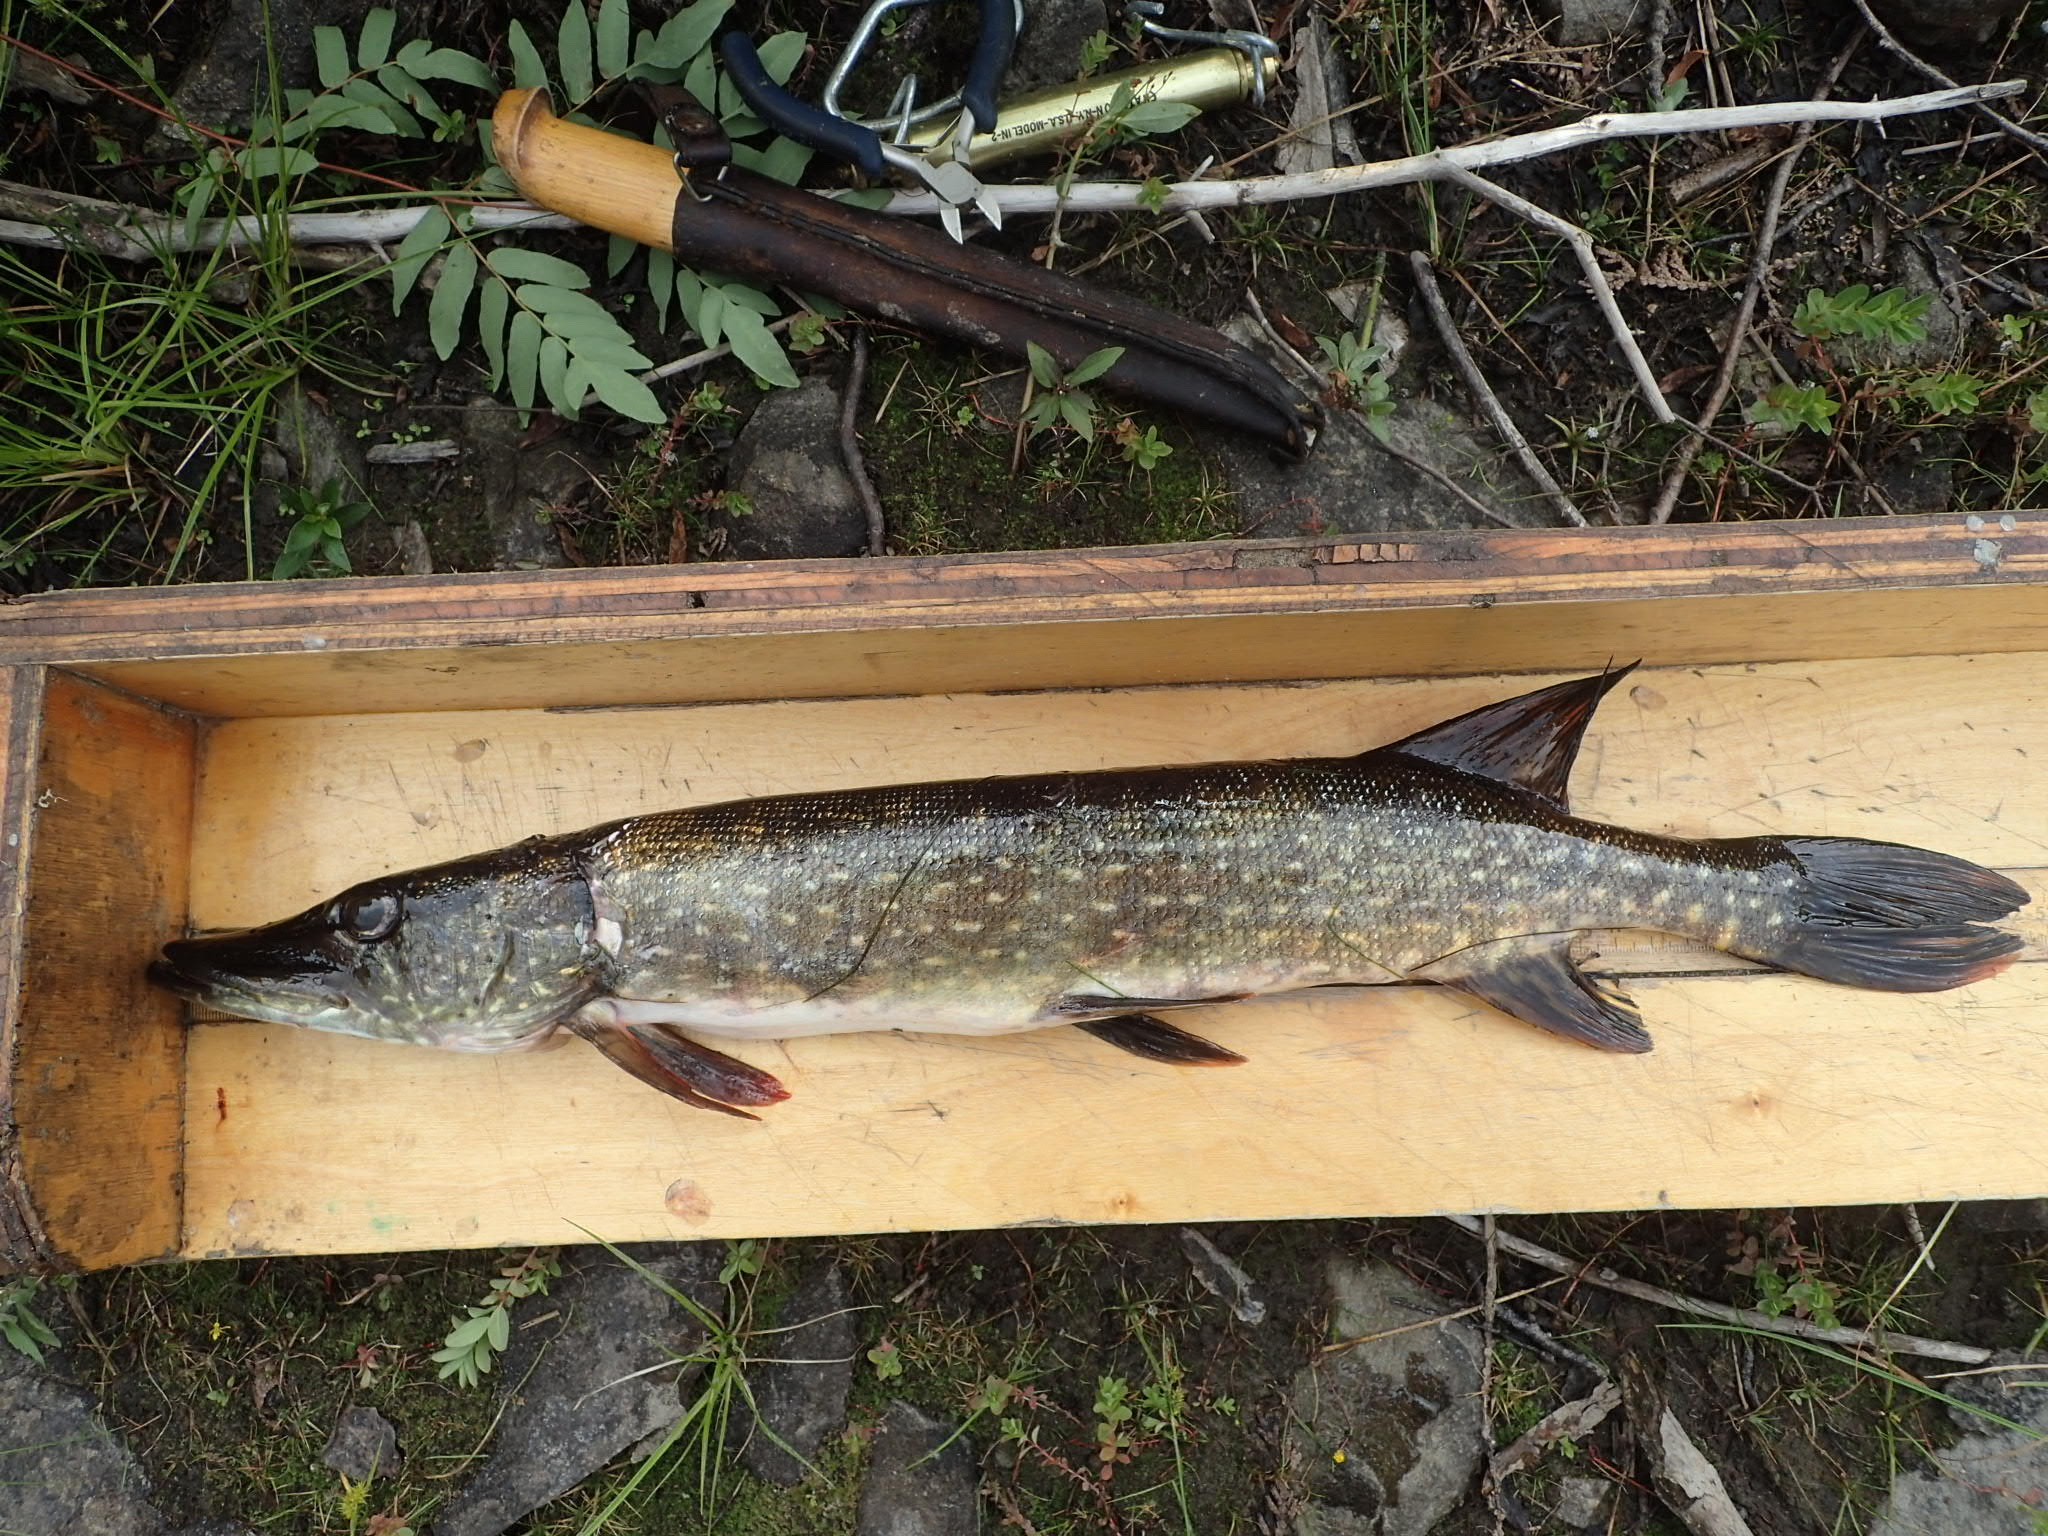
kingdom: Animalia
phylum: Chordata
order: Esociformes
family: Esocidae
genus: Esox
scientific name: Esox lucius
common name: Northern pike
